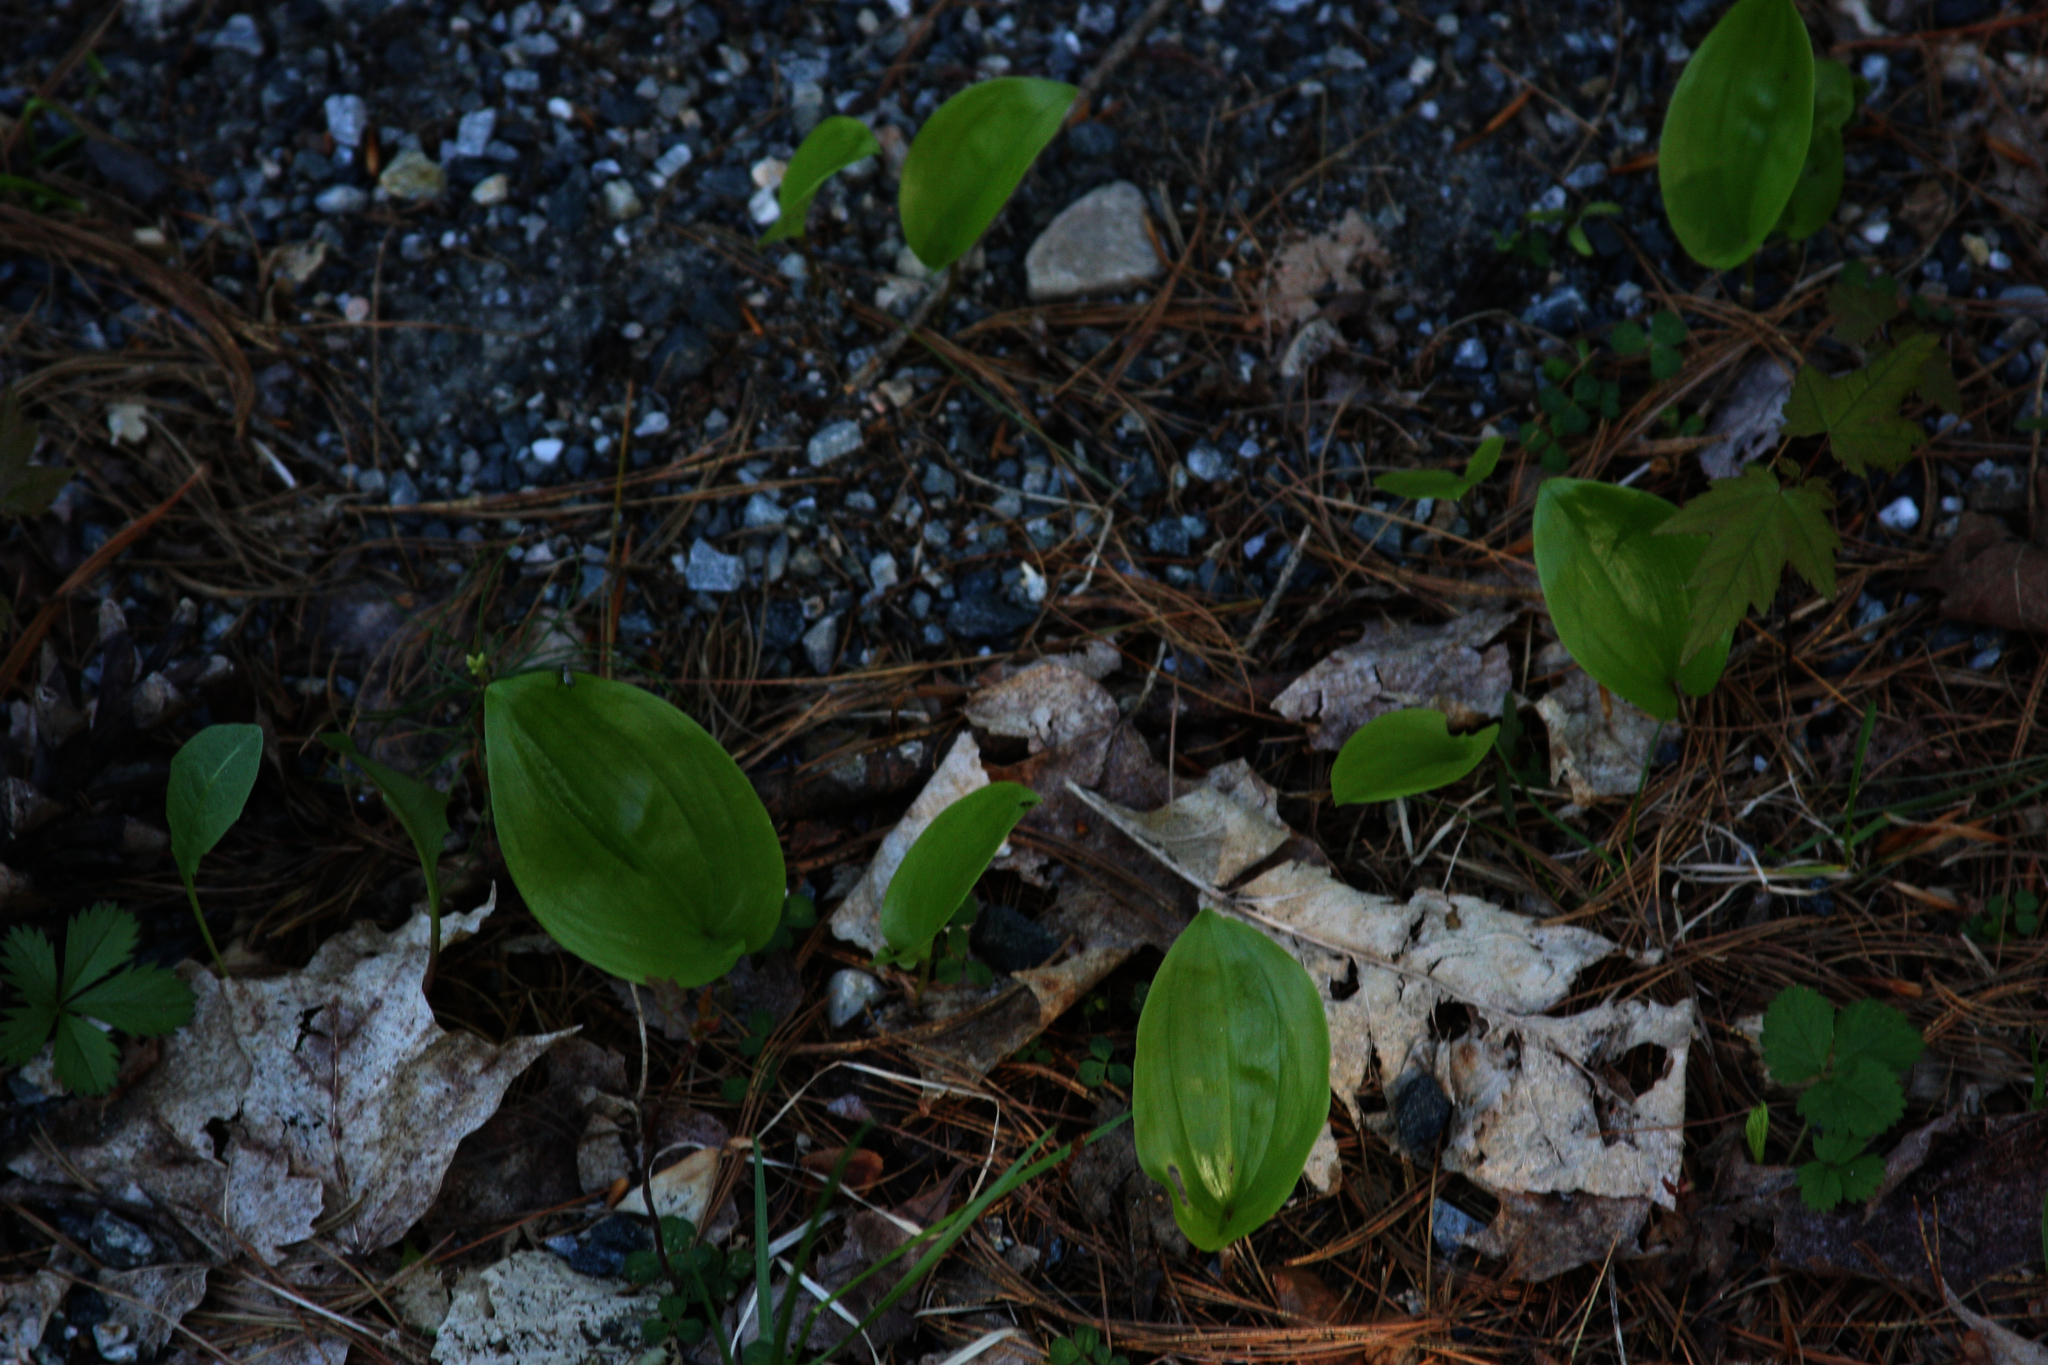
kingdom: Plantae
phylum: Tracheophyta
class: Liliopsida
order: Asparagales
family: Asparagaceae
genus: Maianthemum
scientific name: Maianthemum canadense
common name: False lily-of-the-valley
